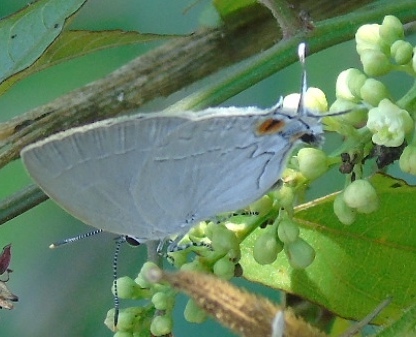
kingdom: Animalia
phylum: Arthropoda
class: Insecta
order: Lepidoptera
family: Lycaenidae
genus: Ostrinotes
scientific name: Ostrinotes halciones
